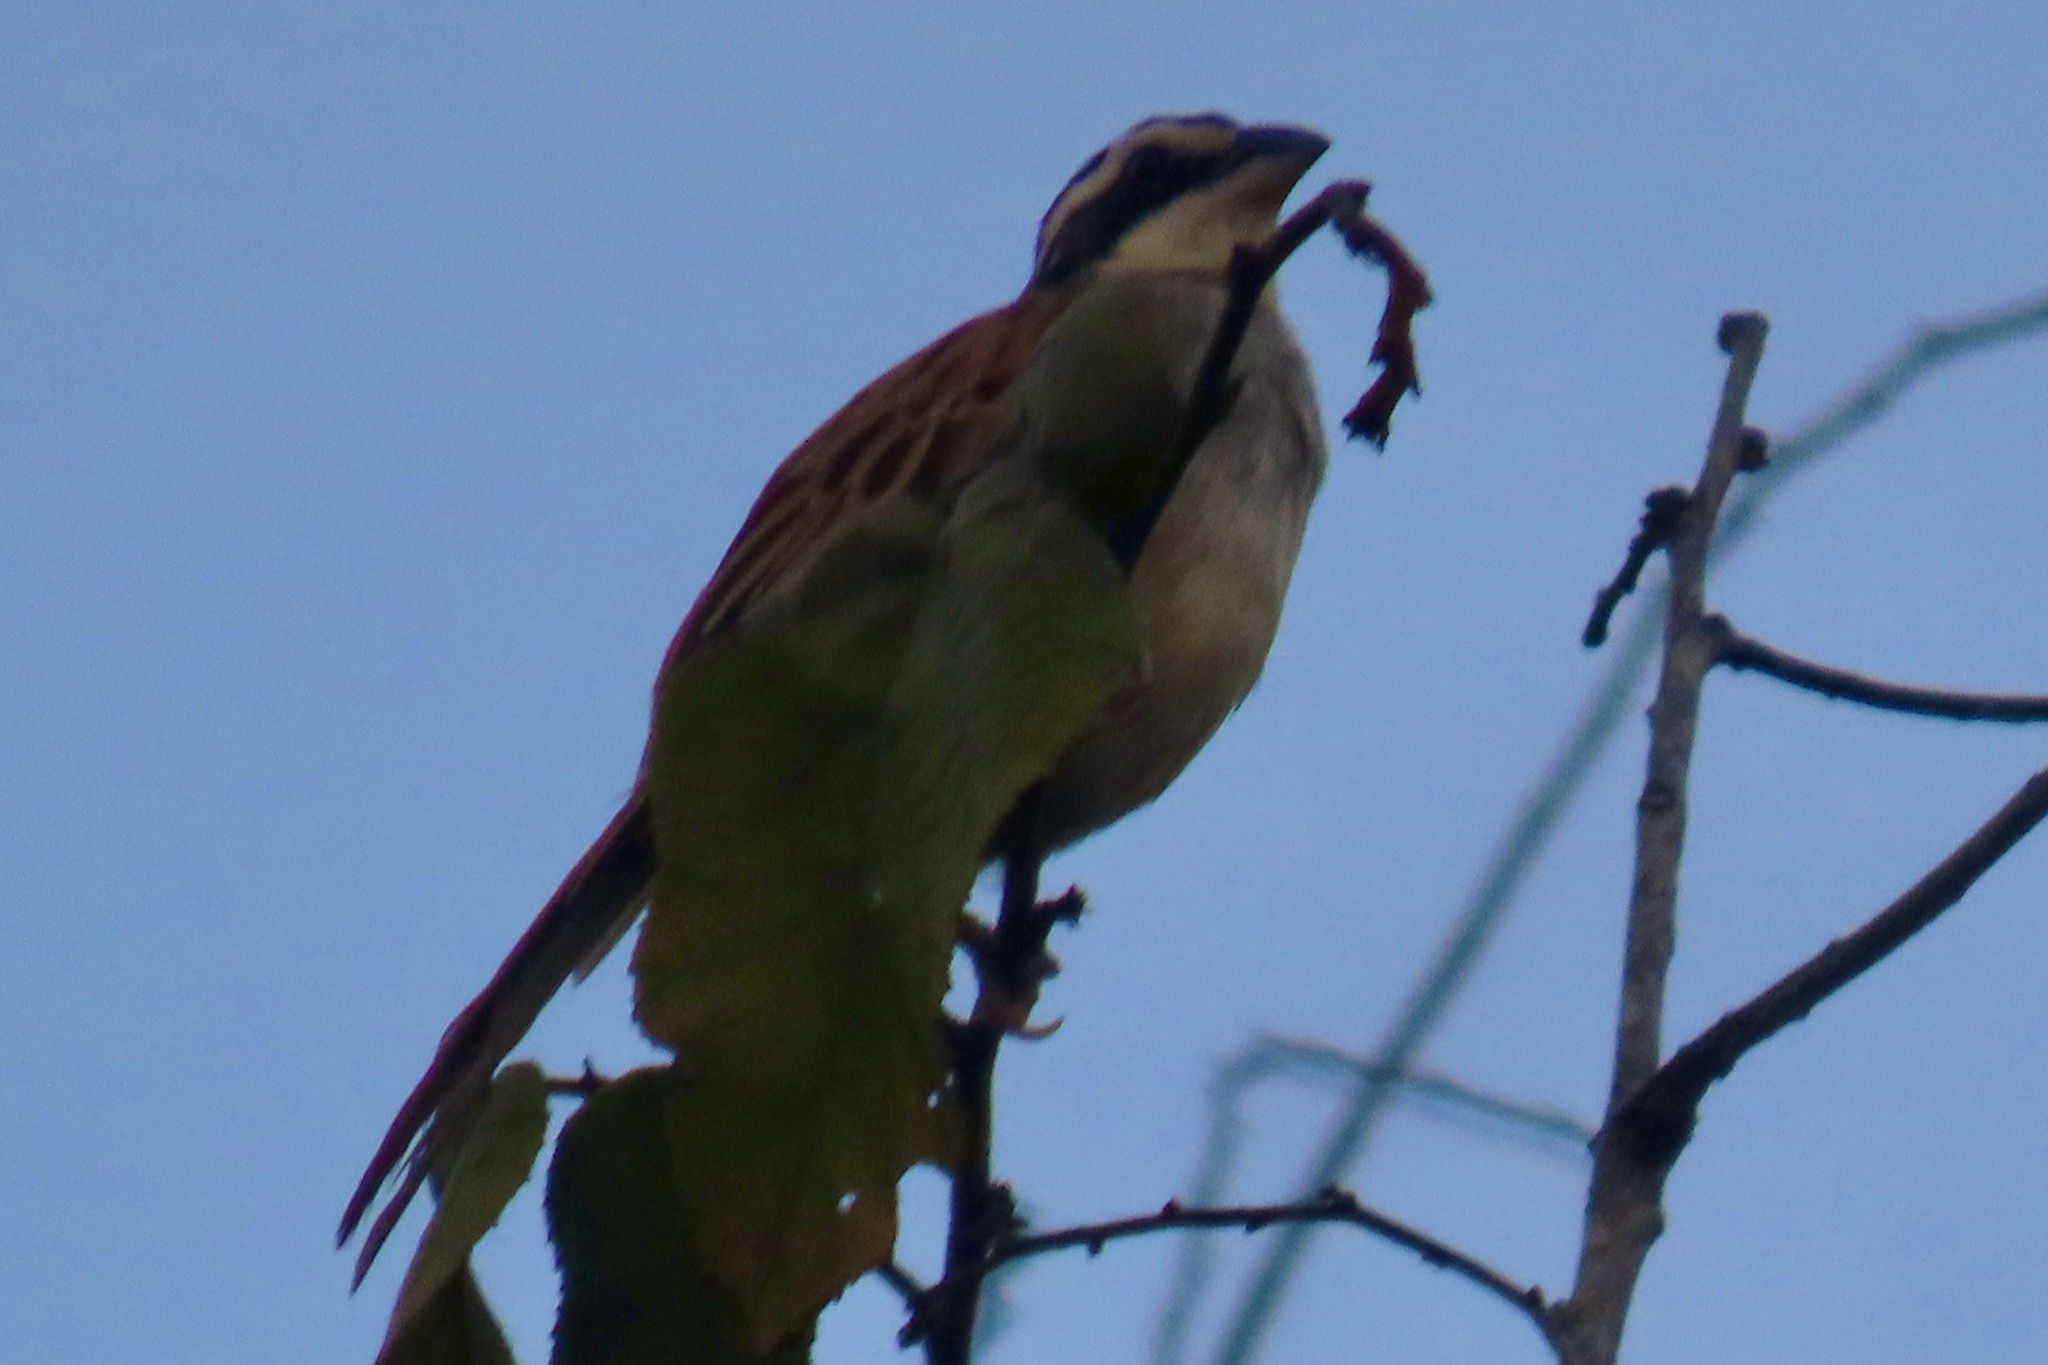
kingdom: Animalia
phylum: Chordata
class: Aves
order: Passeriformes
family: Passerellidae
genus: Peucaea
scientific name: Peucaea ruficauda
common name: Stripe-headed sparrow
